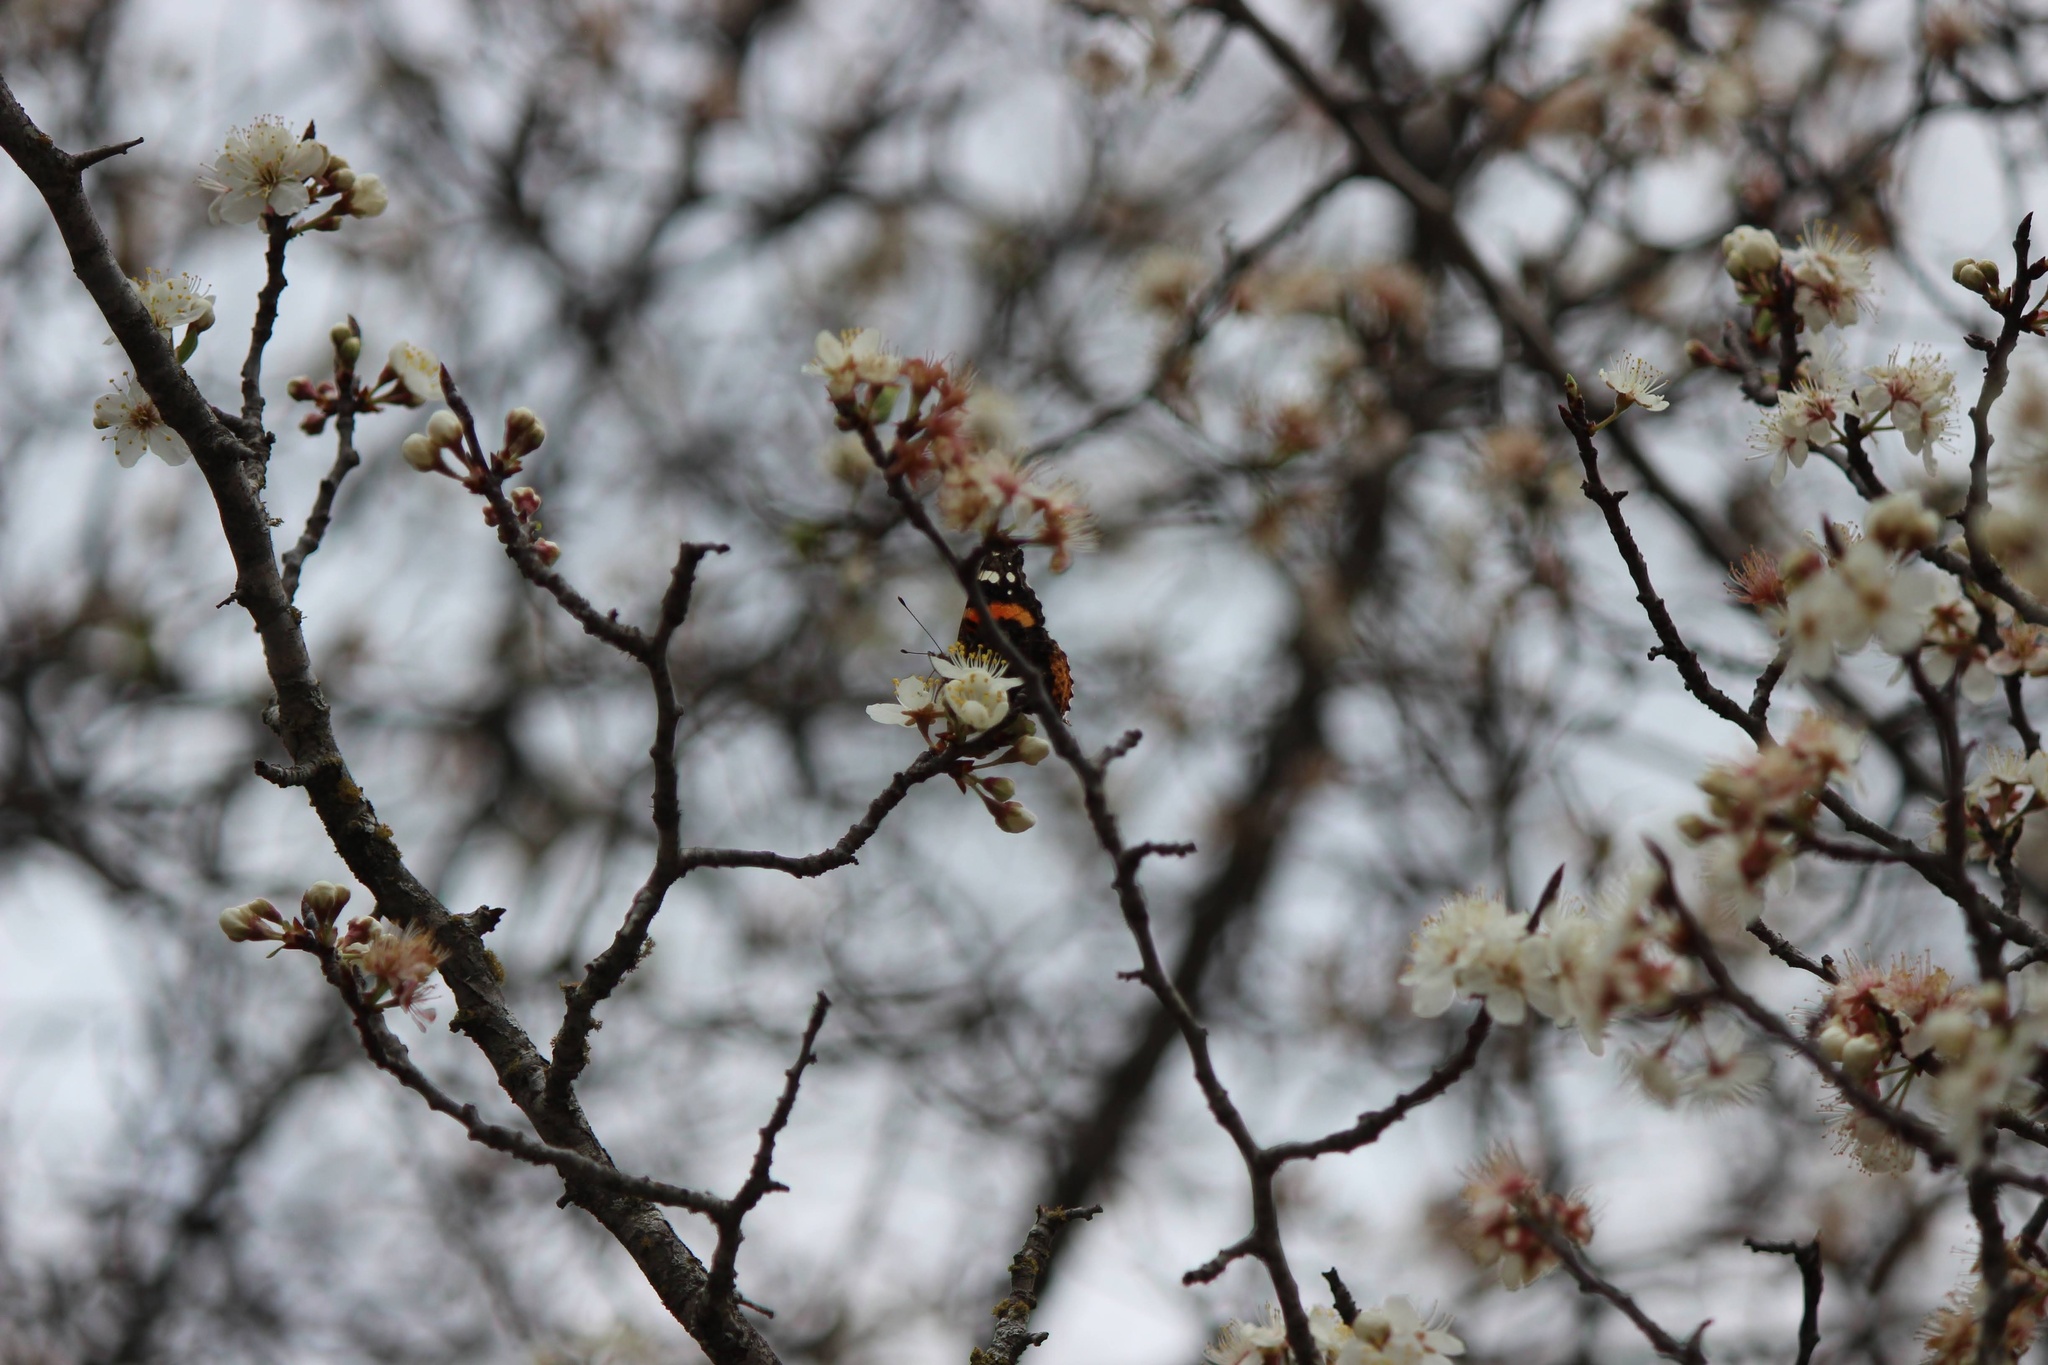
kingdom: Animalia
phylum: Arthropoda
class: Insecta
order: Lepidoptera
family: Nymphalidae
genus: Vanessa
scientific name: Vanessa atalanta
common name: Red admiral
